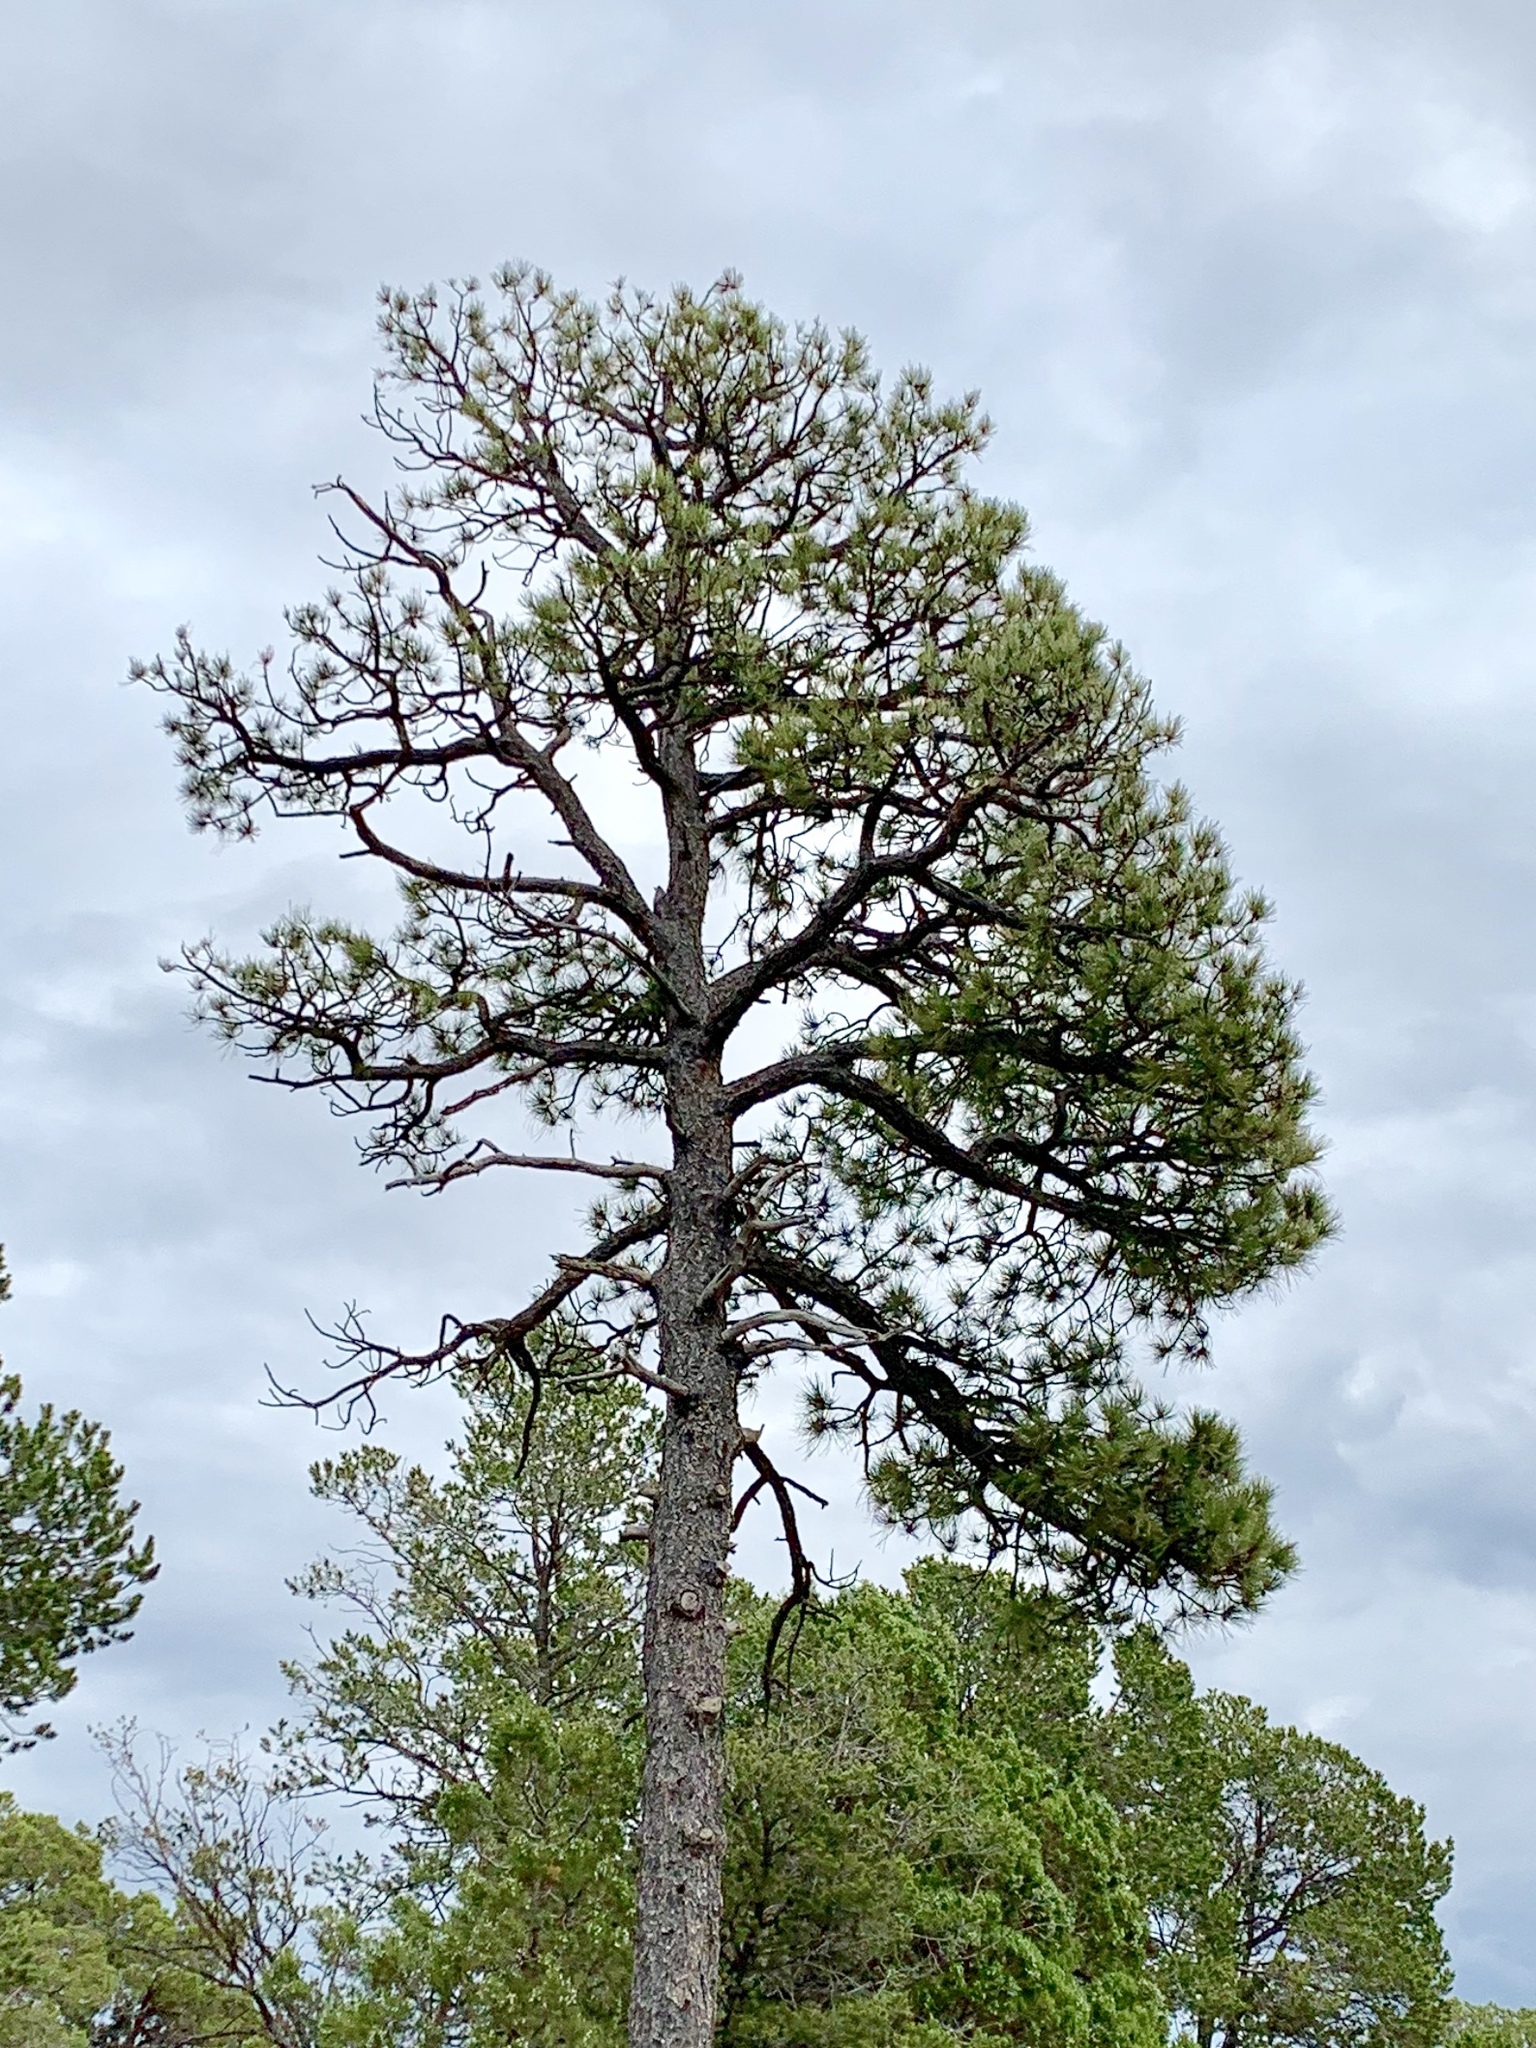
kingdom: Plantae
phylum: Tracheophyta
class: Pinopsida
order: Pinales
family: Pinaceae
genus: Pinus
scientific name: Pinus ponderosa
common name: Western yellow-pine
